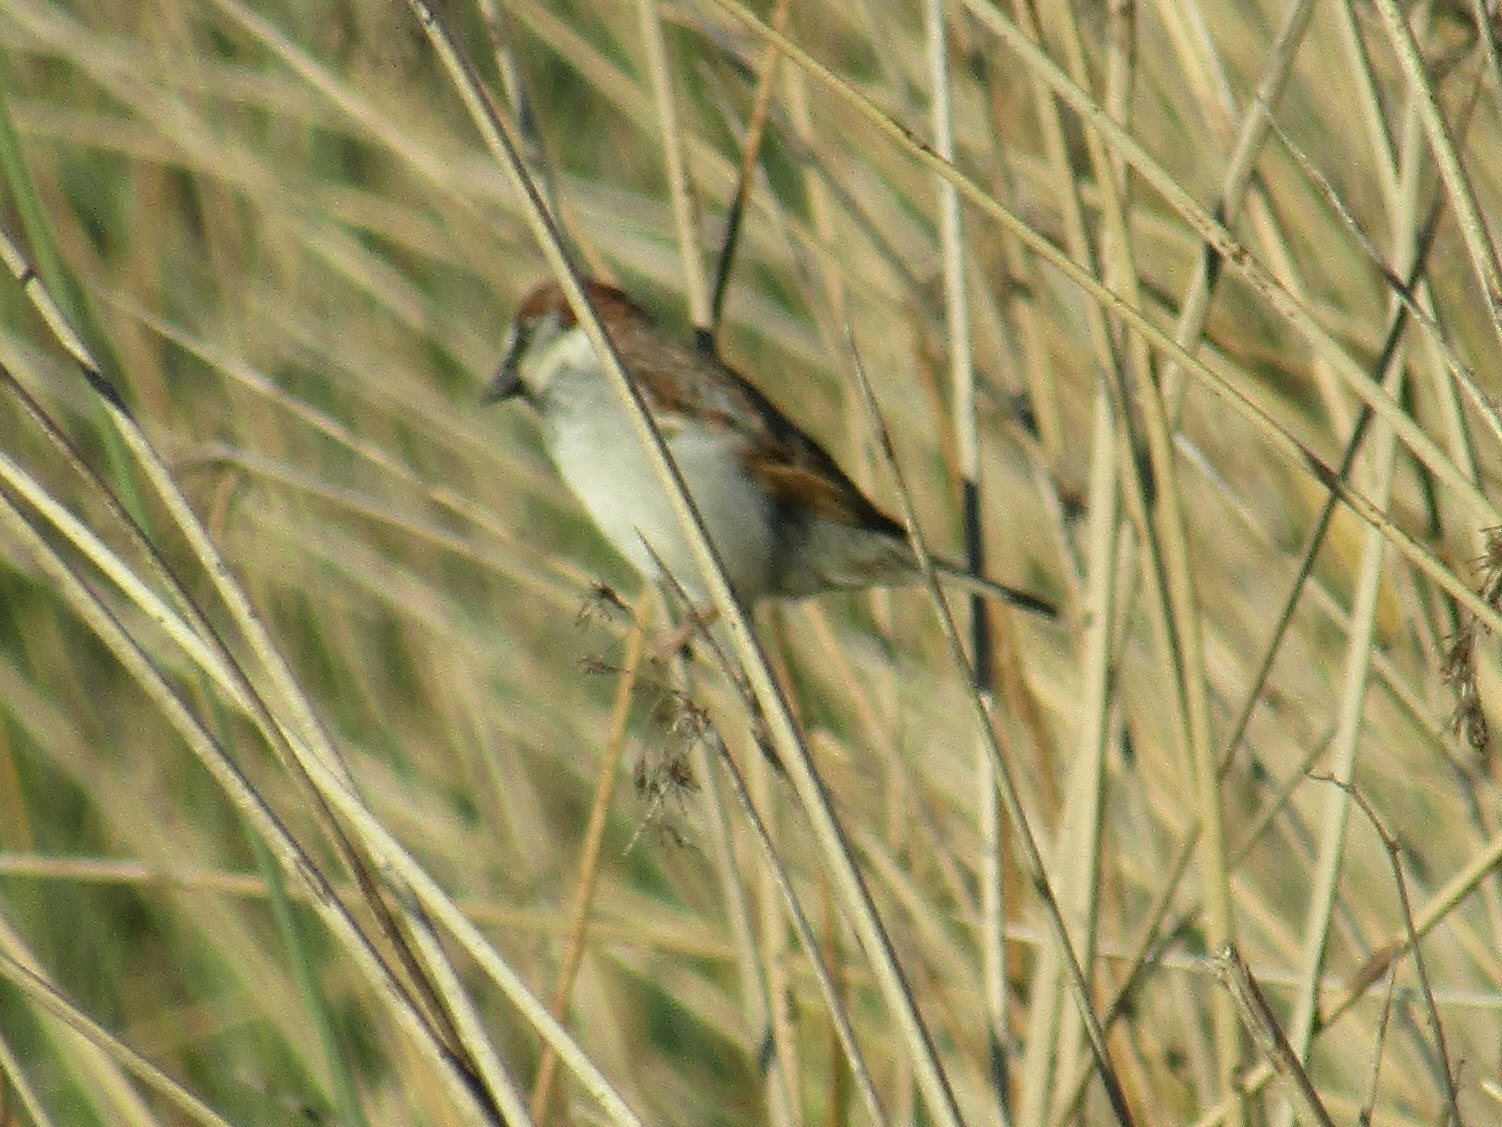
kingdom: Animalia
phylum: Chordata
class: Aves
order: Passeriformes
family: Passeridae
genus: Passer
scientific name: Passer domesticus
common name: House sparrow
